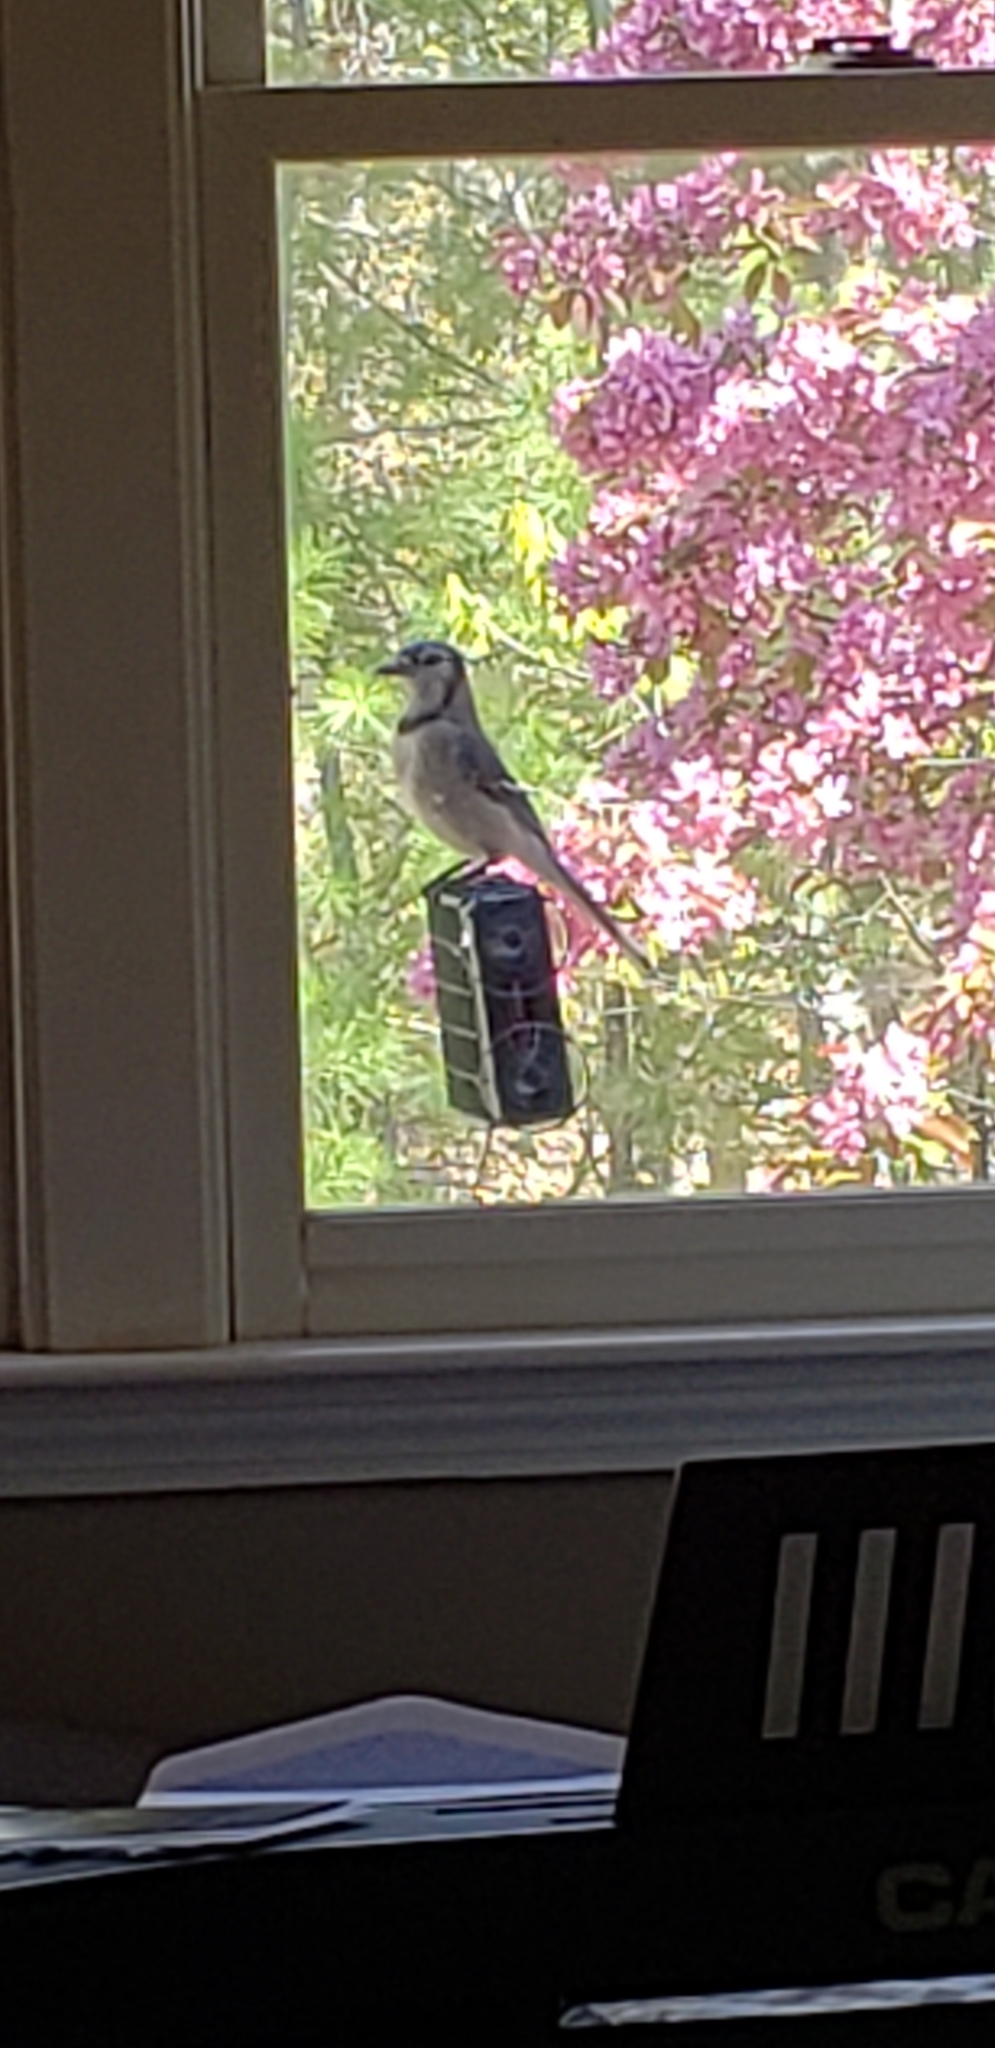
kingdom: Animalia
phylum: Chordata
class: Aves
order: Passeriformes
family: Corvidae
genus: Cyanocitta
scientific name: Cyanocitta cristata
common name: Blue jay
